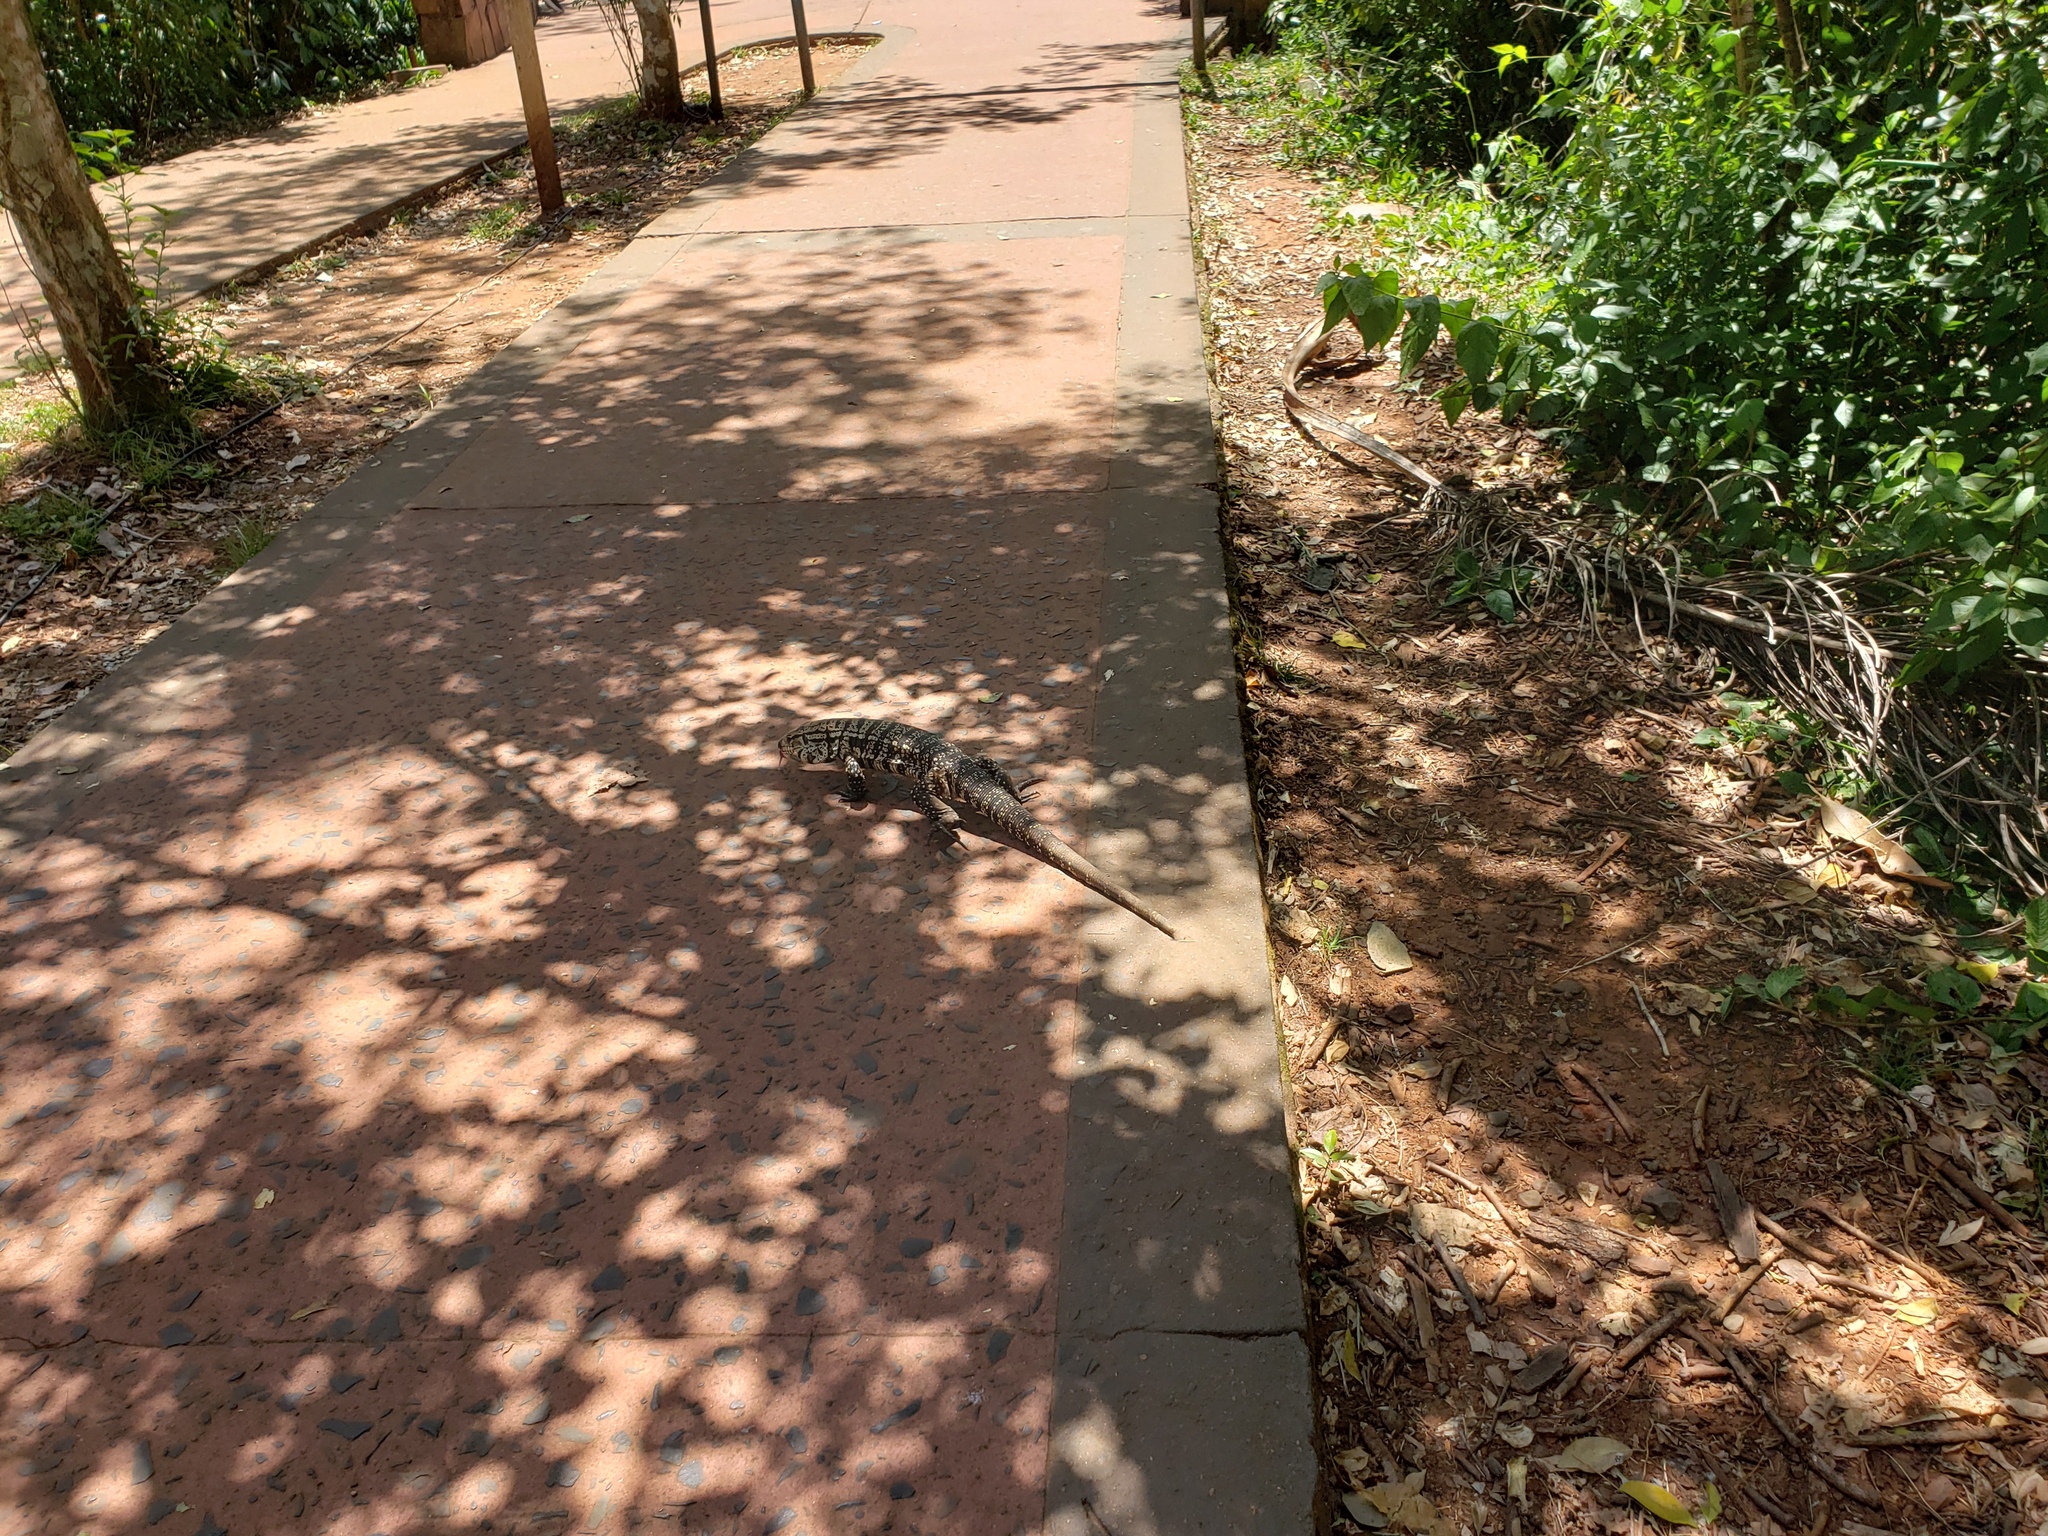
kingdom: Animalia
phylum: Chordata
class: Squamata
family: Teiidae
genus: Salvator
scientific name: Salvator merianae
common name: Argentine black and white tegu
